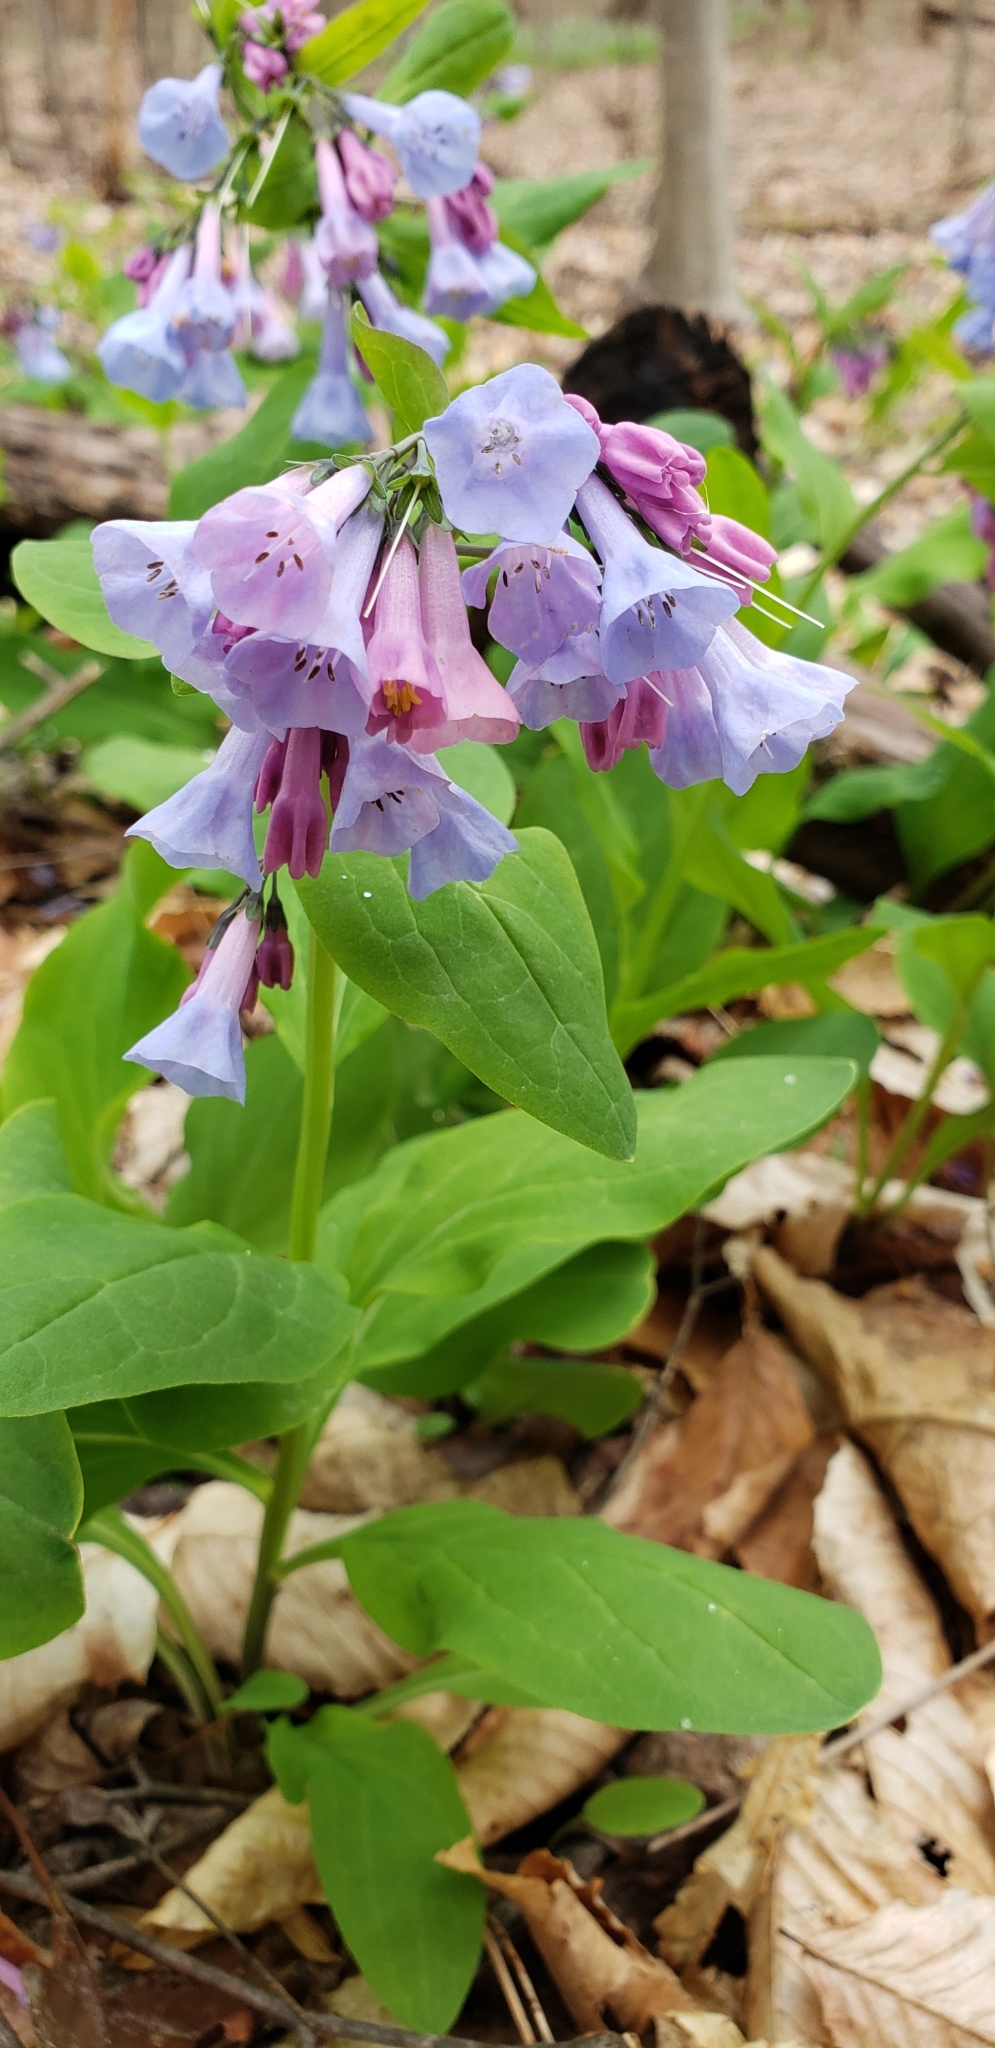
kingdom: Plantae
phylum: Tracheophyta
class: Magnoliopsida
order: Boraginales
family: Boraginaceae
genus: Mertensia
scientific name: Mertensia virginica
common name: Virginia bluebells
